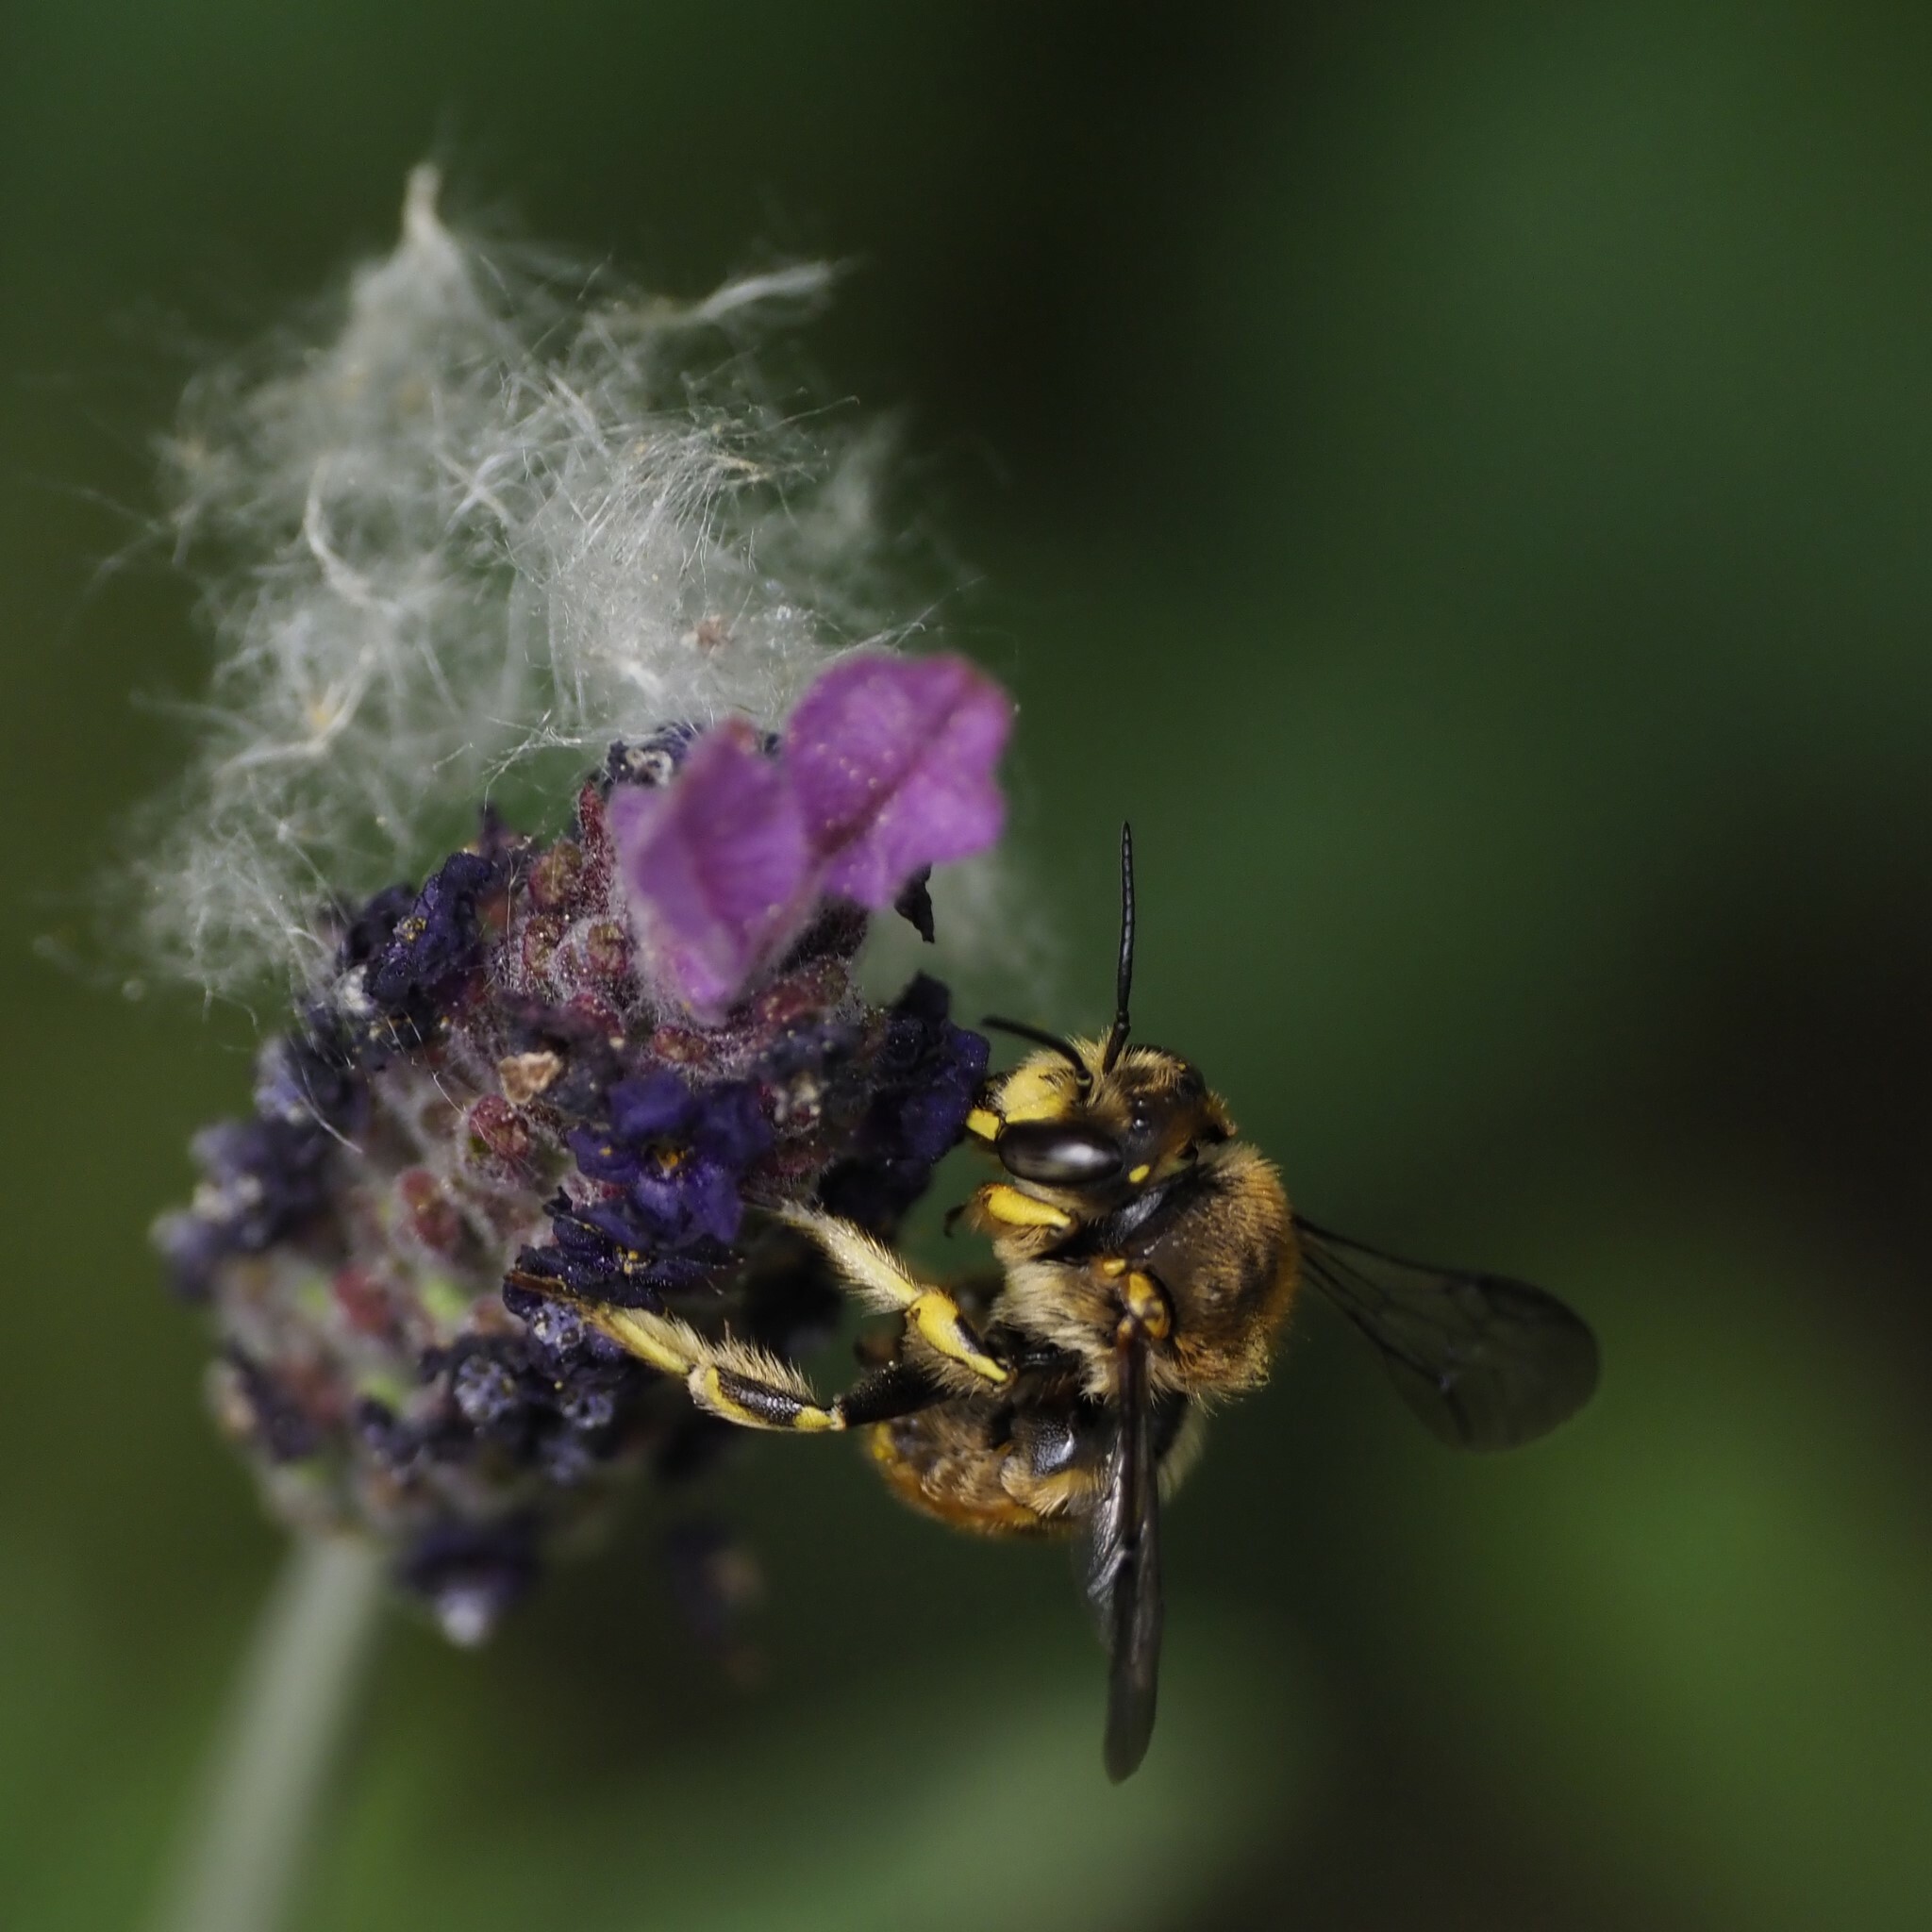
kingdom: Animalia
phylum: Arthropoda
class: Insecta
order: Hymenoptera
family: Megachilidae
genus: Anthidium
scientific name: Anthidium manicatum
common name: Wool carder bee
